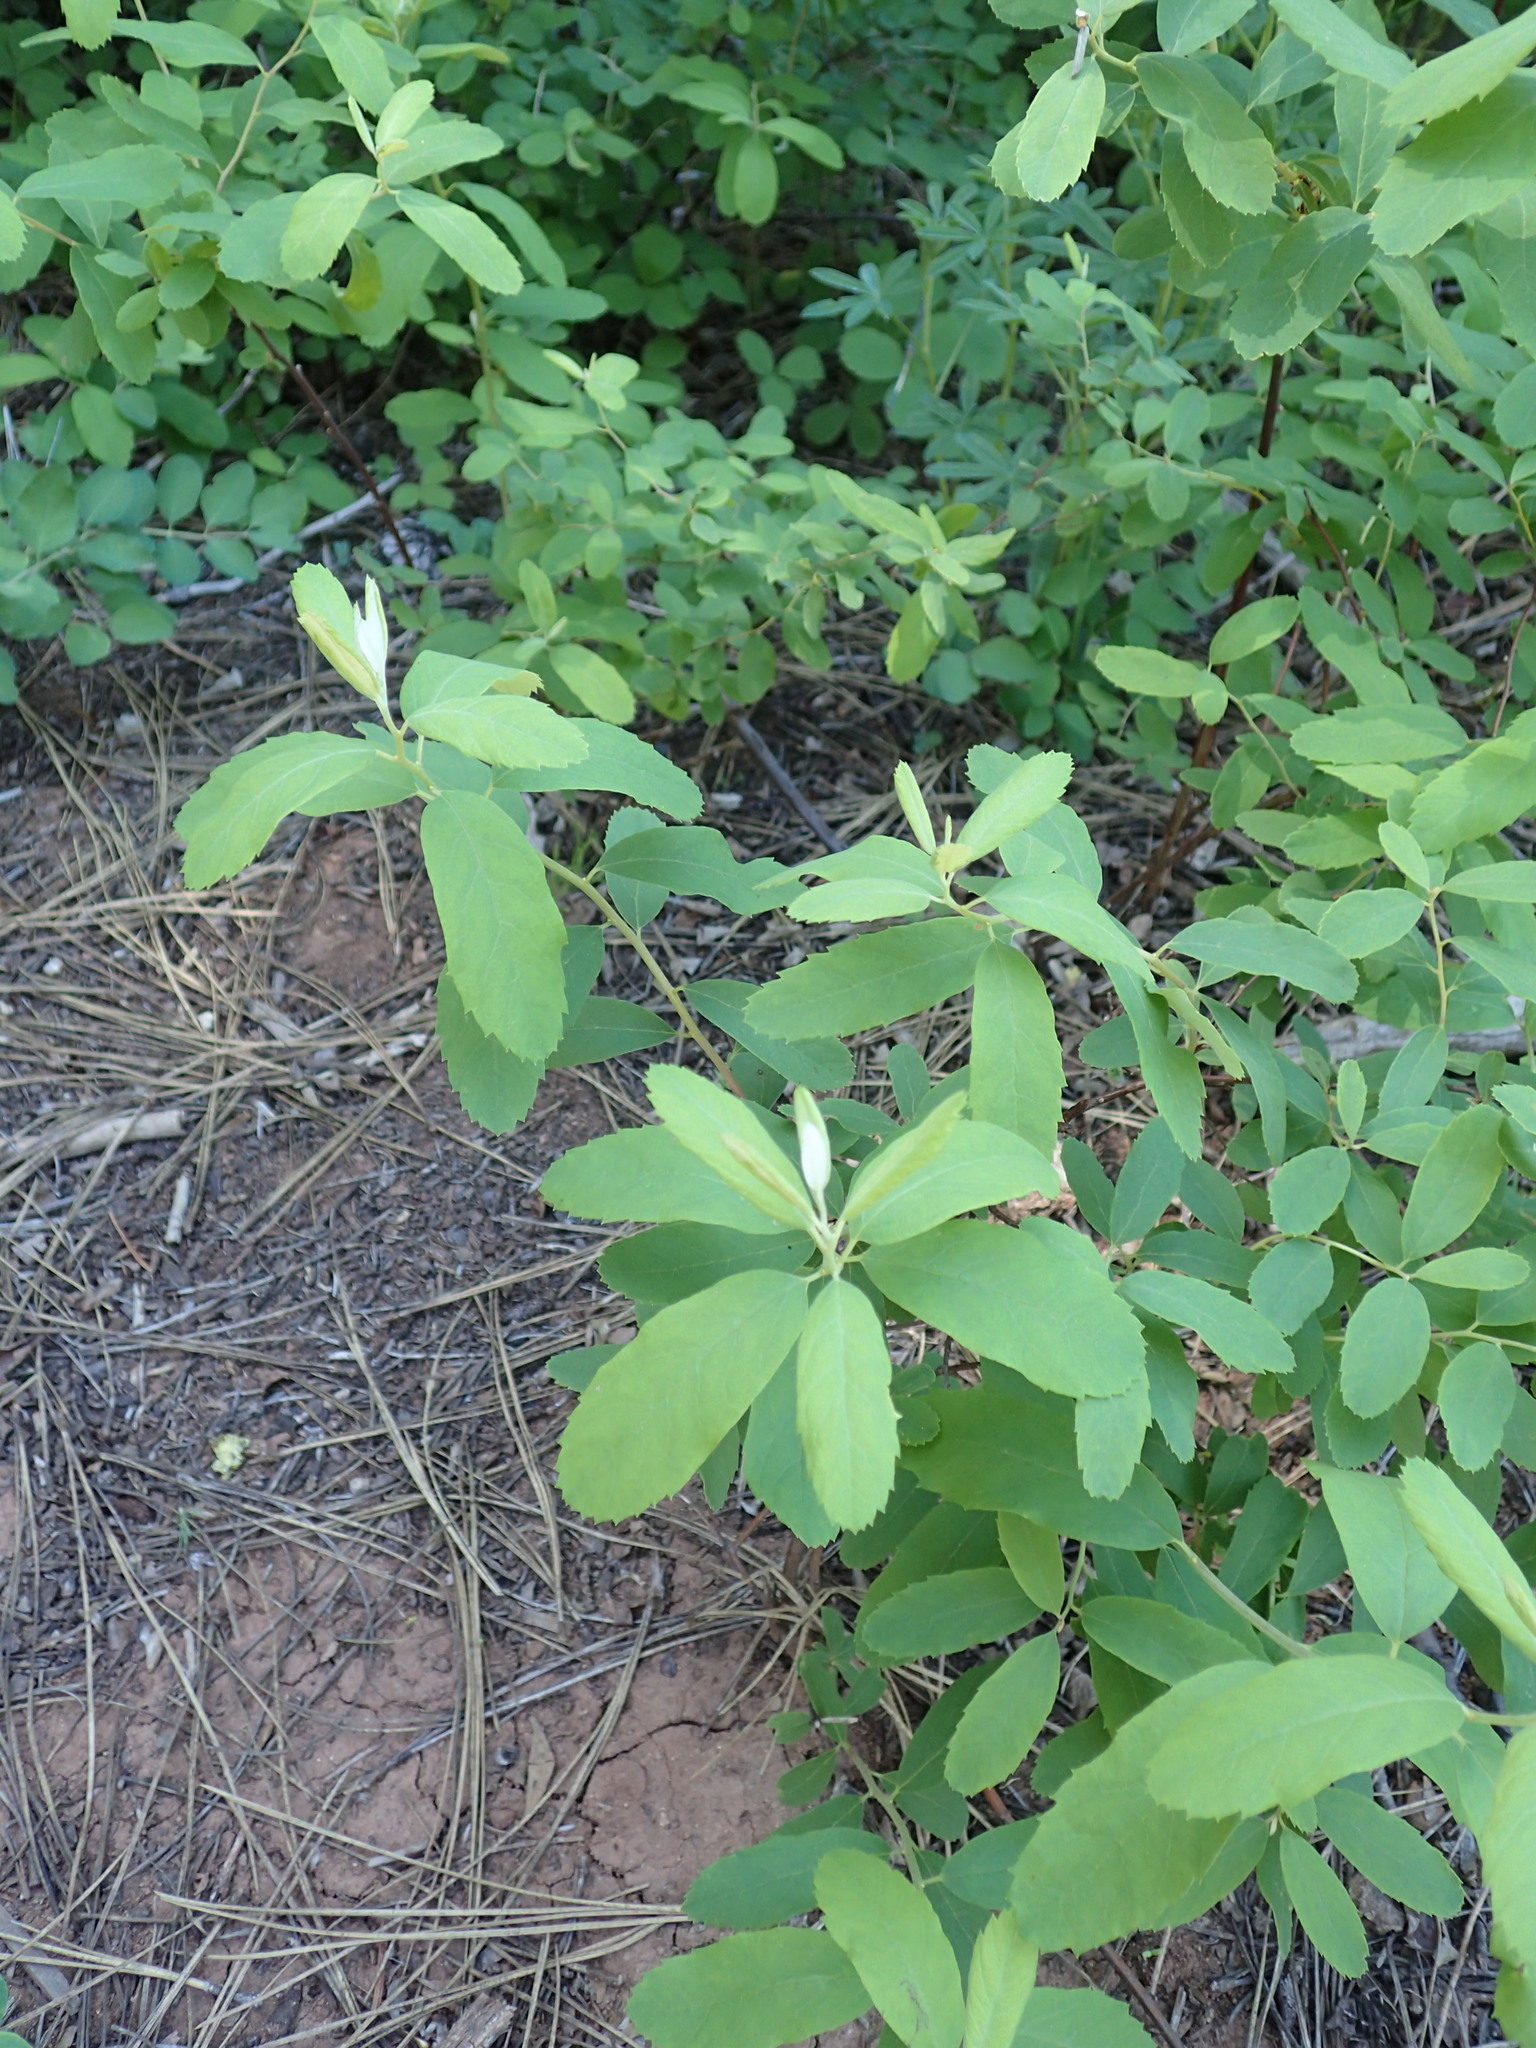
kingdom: Plantae
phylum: Tracheophyta
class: Magnoliopsida
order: Rosales
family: Rosaceae
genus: Spiraea
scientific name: Spiraea douglasii
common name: Steeplebush
